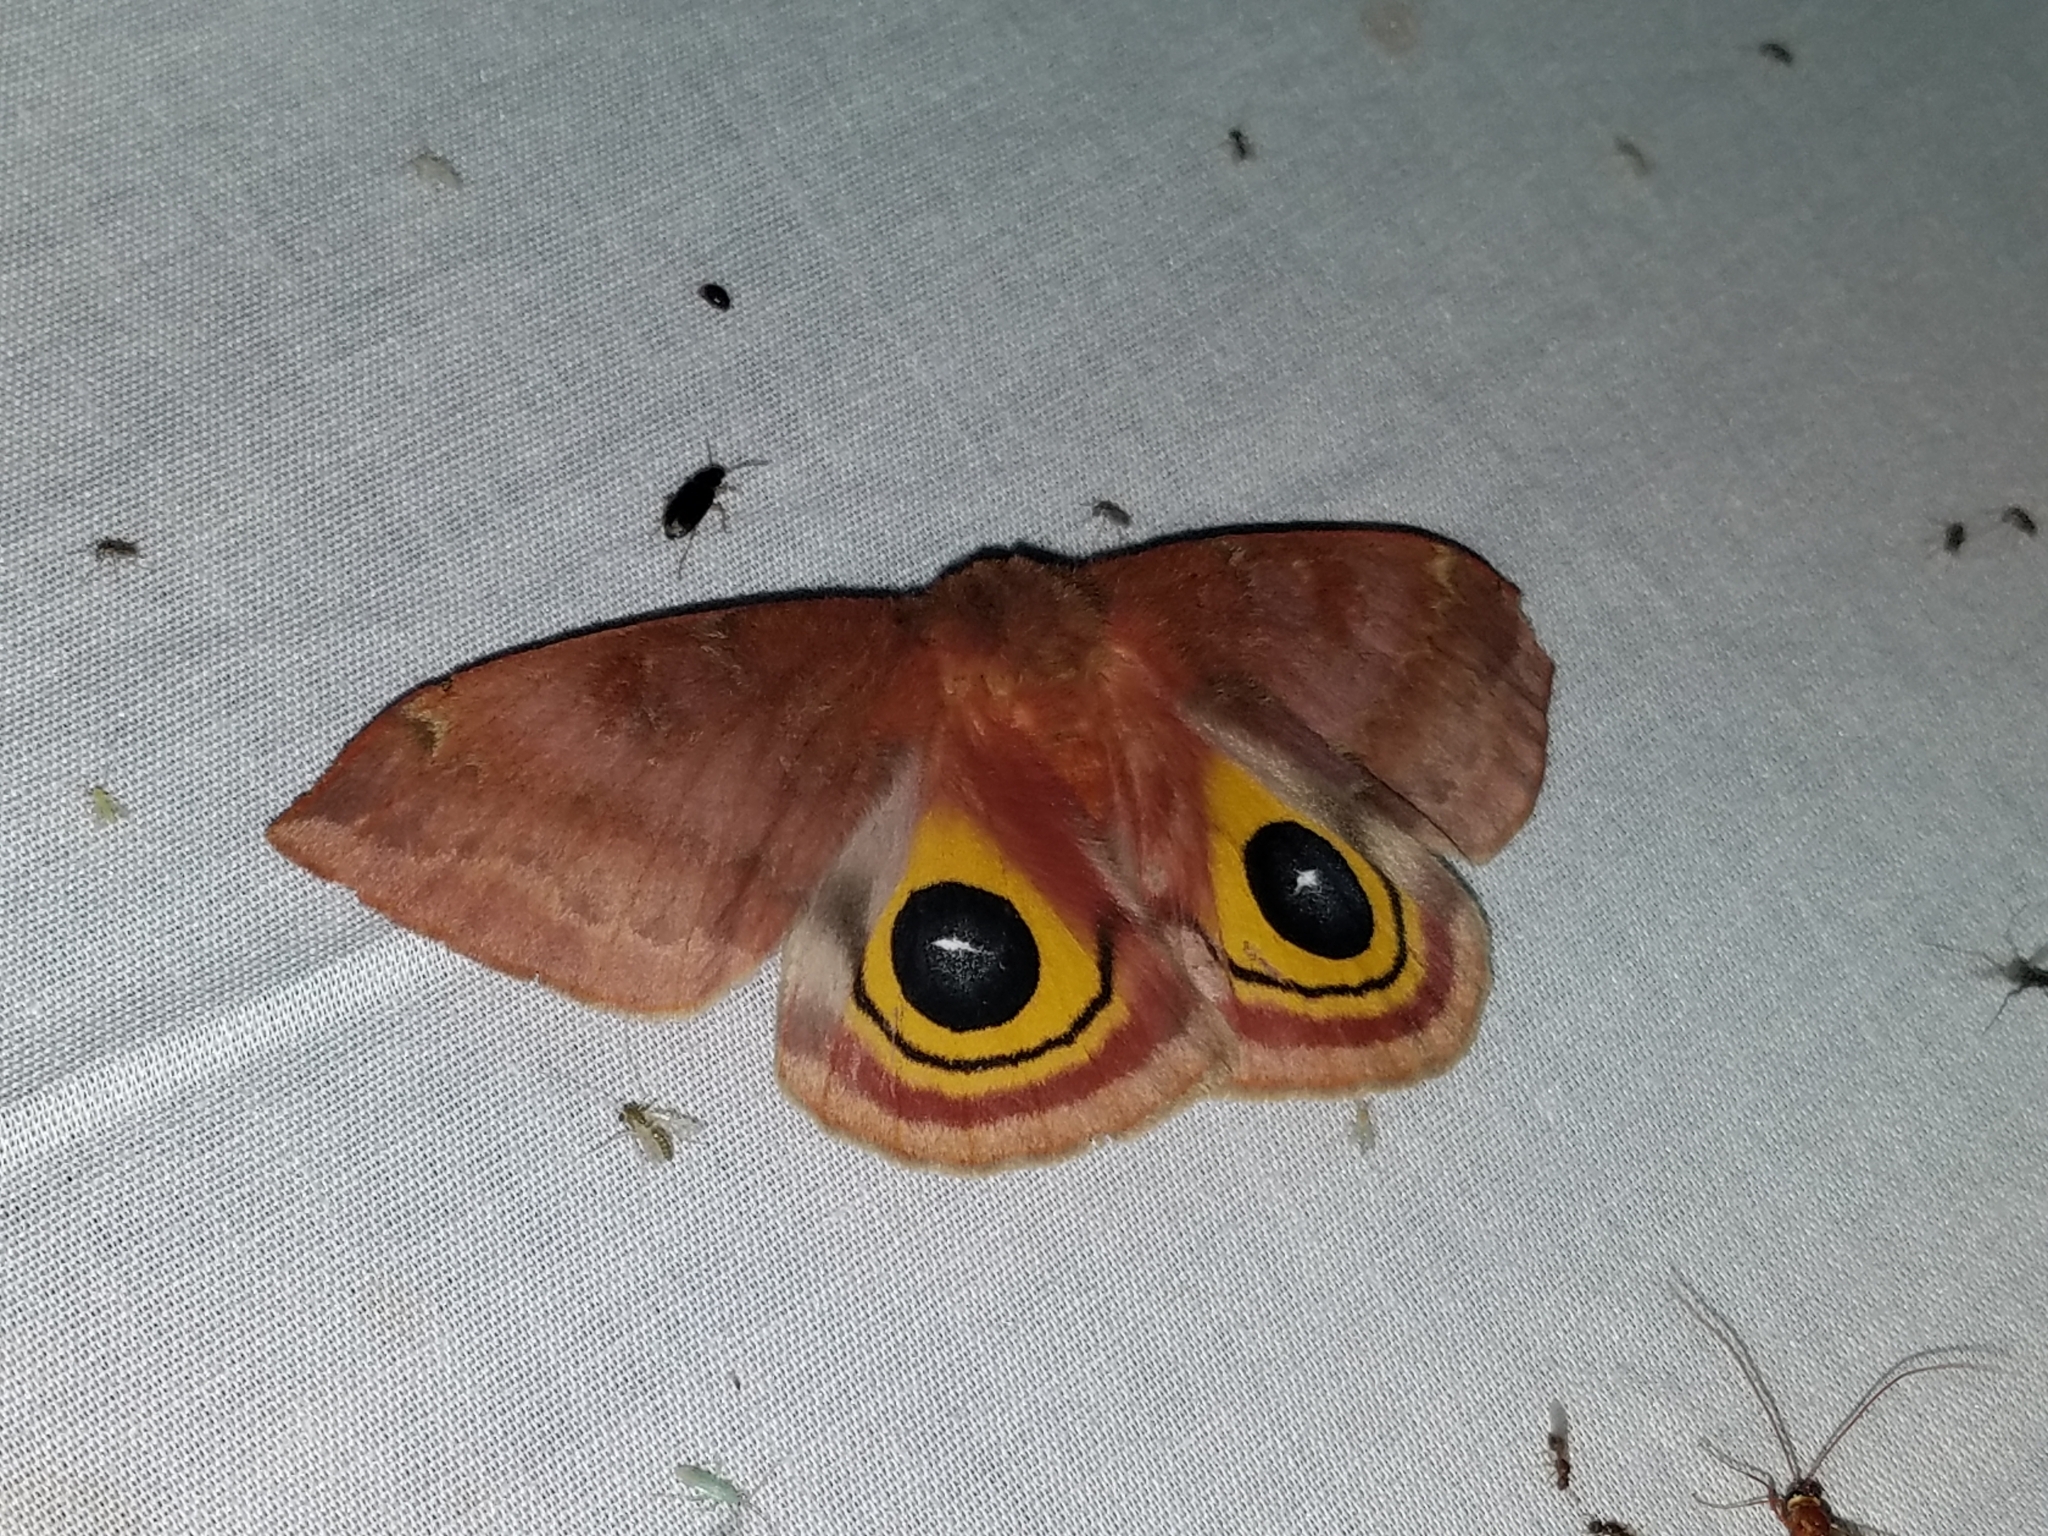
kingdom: Animalia
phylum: Arthropoda
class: Insecta
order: Lepidoptera
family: Saturniidae
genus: Automeris
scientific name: Automeris io
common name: Io moth
